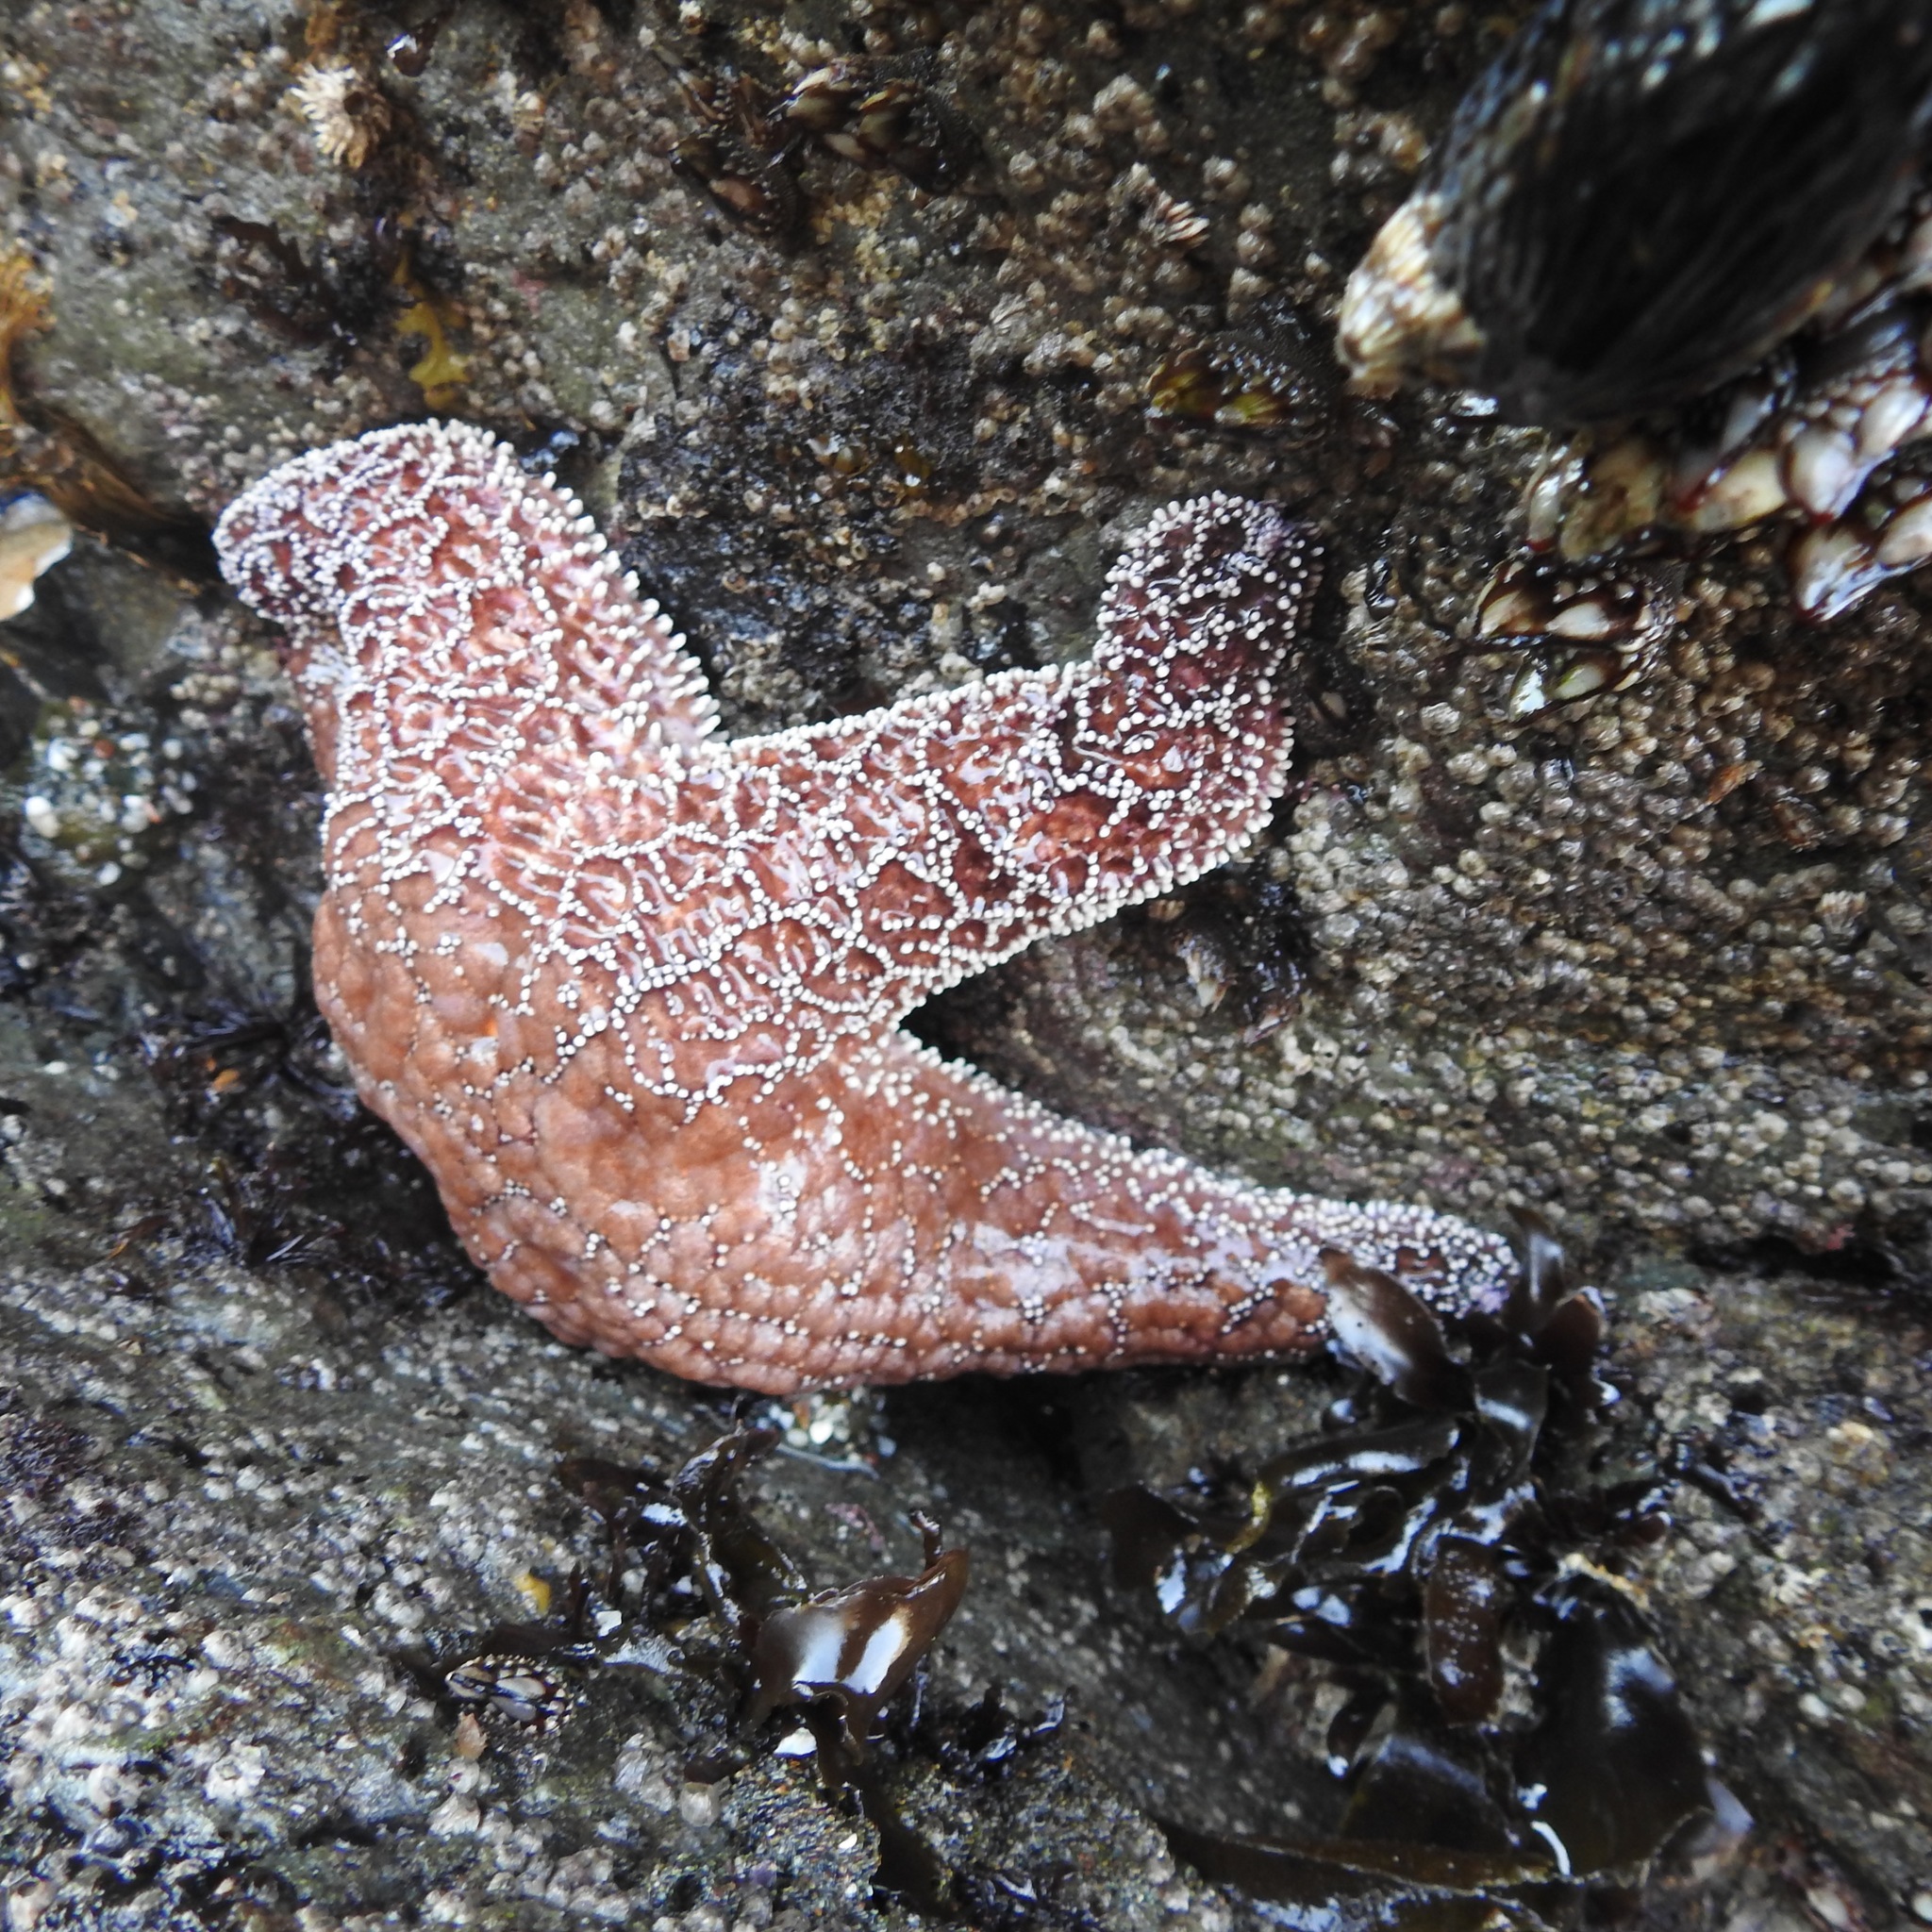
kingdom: Animalia
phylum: Echinodermata
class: Asteroidea
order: Forcipulatida
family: Asteriidae
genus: Pisaster
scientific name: Pisaster ochraceus
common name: Ochre stars
